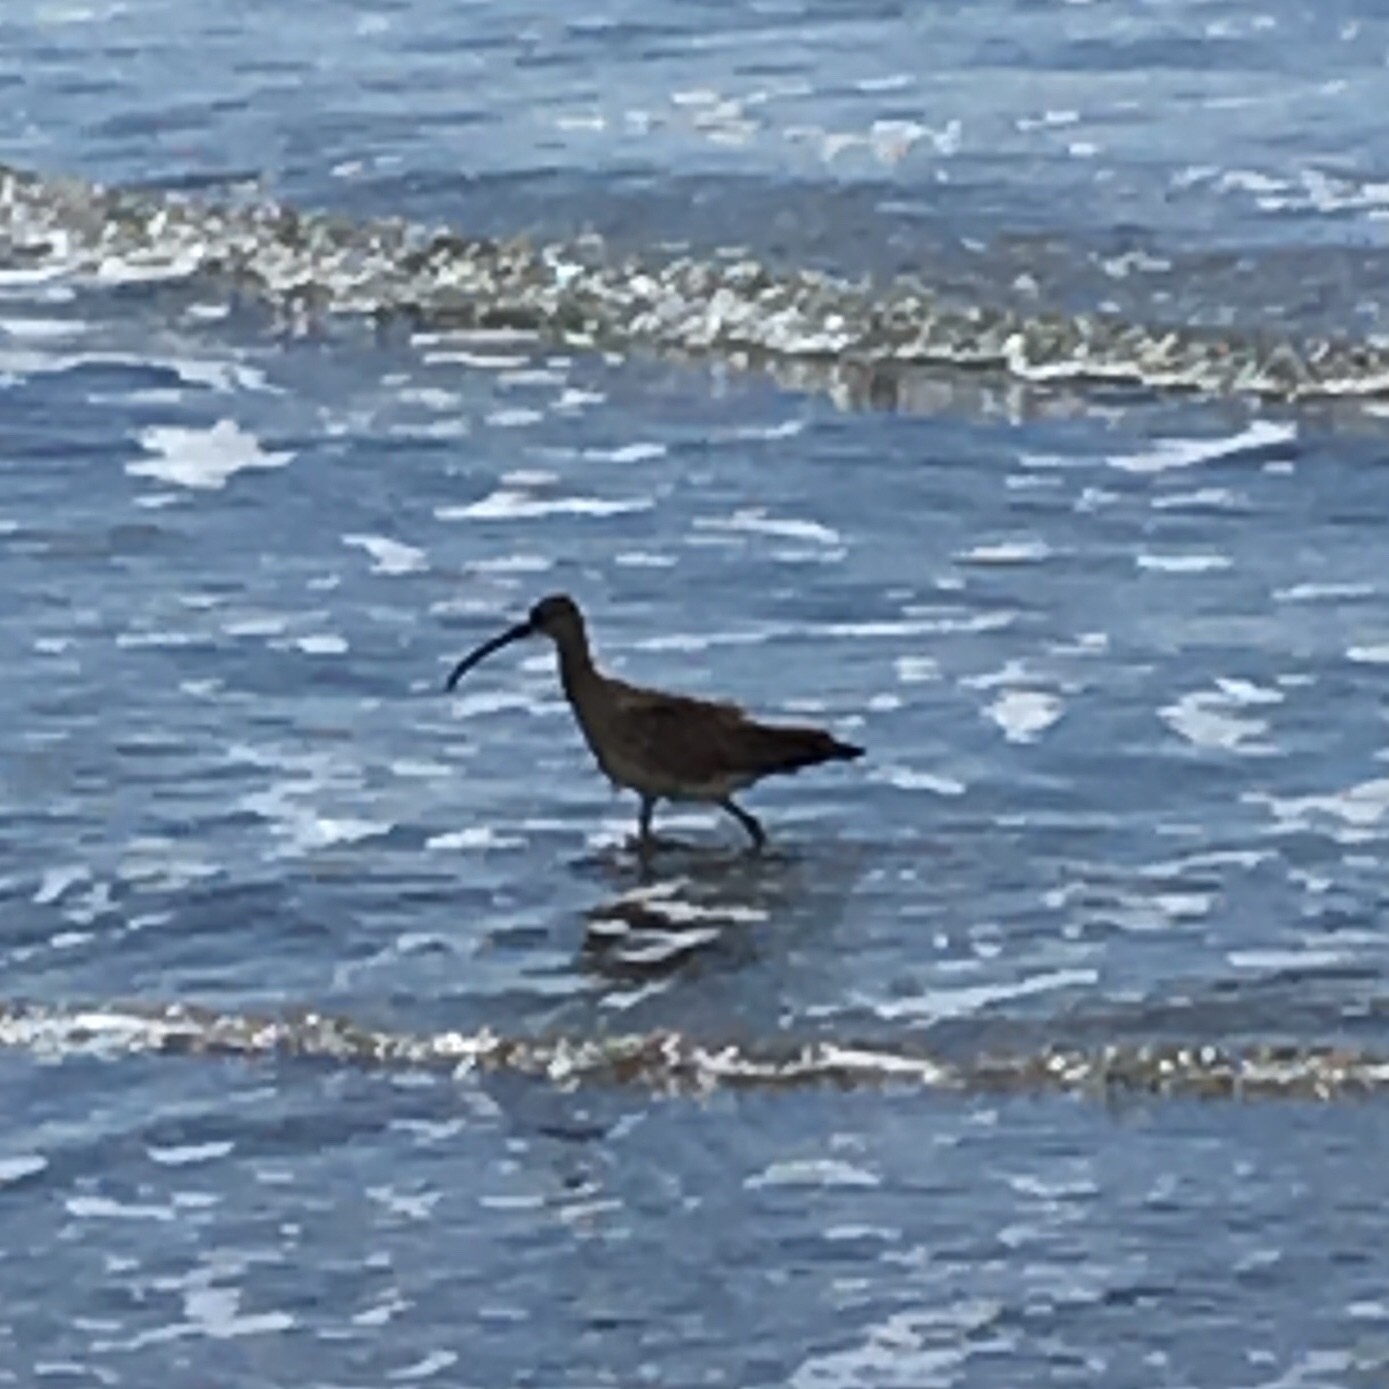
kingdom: Animalia
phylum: Chordata
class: Aves
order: Charadriiformes
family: Scolopacidae
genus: Numenius
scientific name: Numenius americanus
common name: Long-billed curlew
